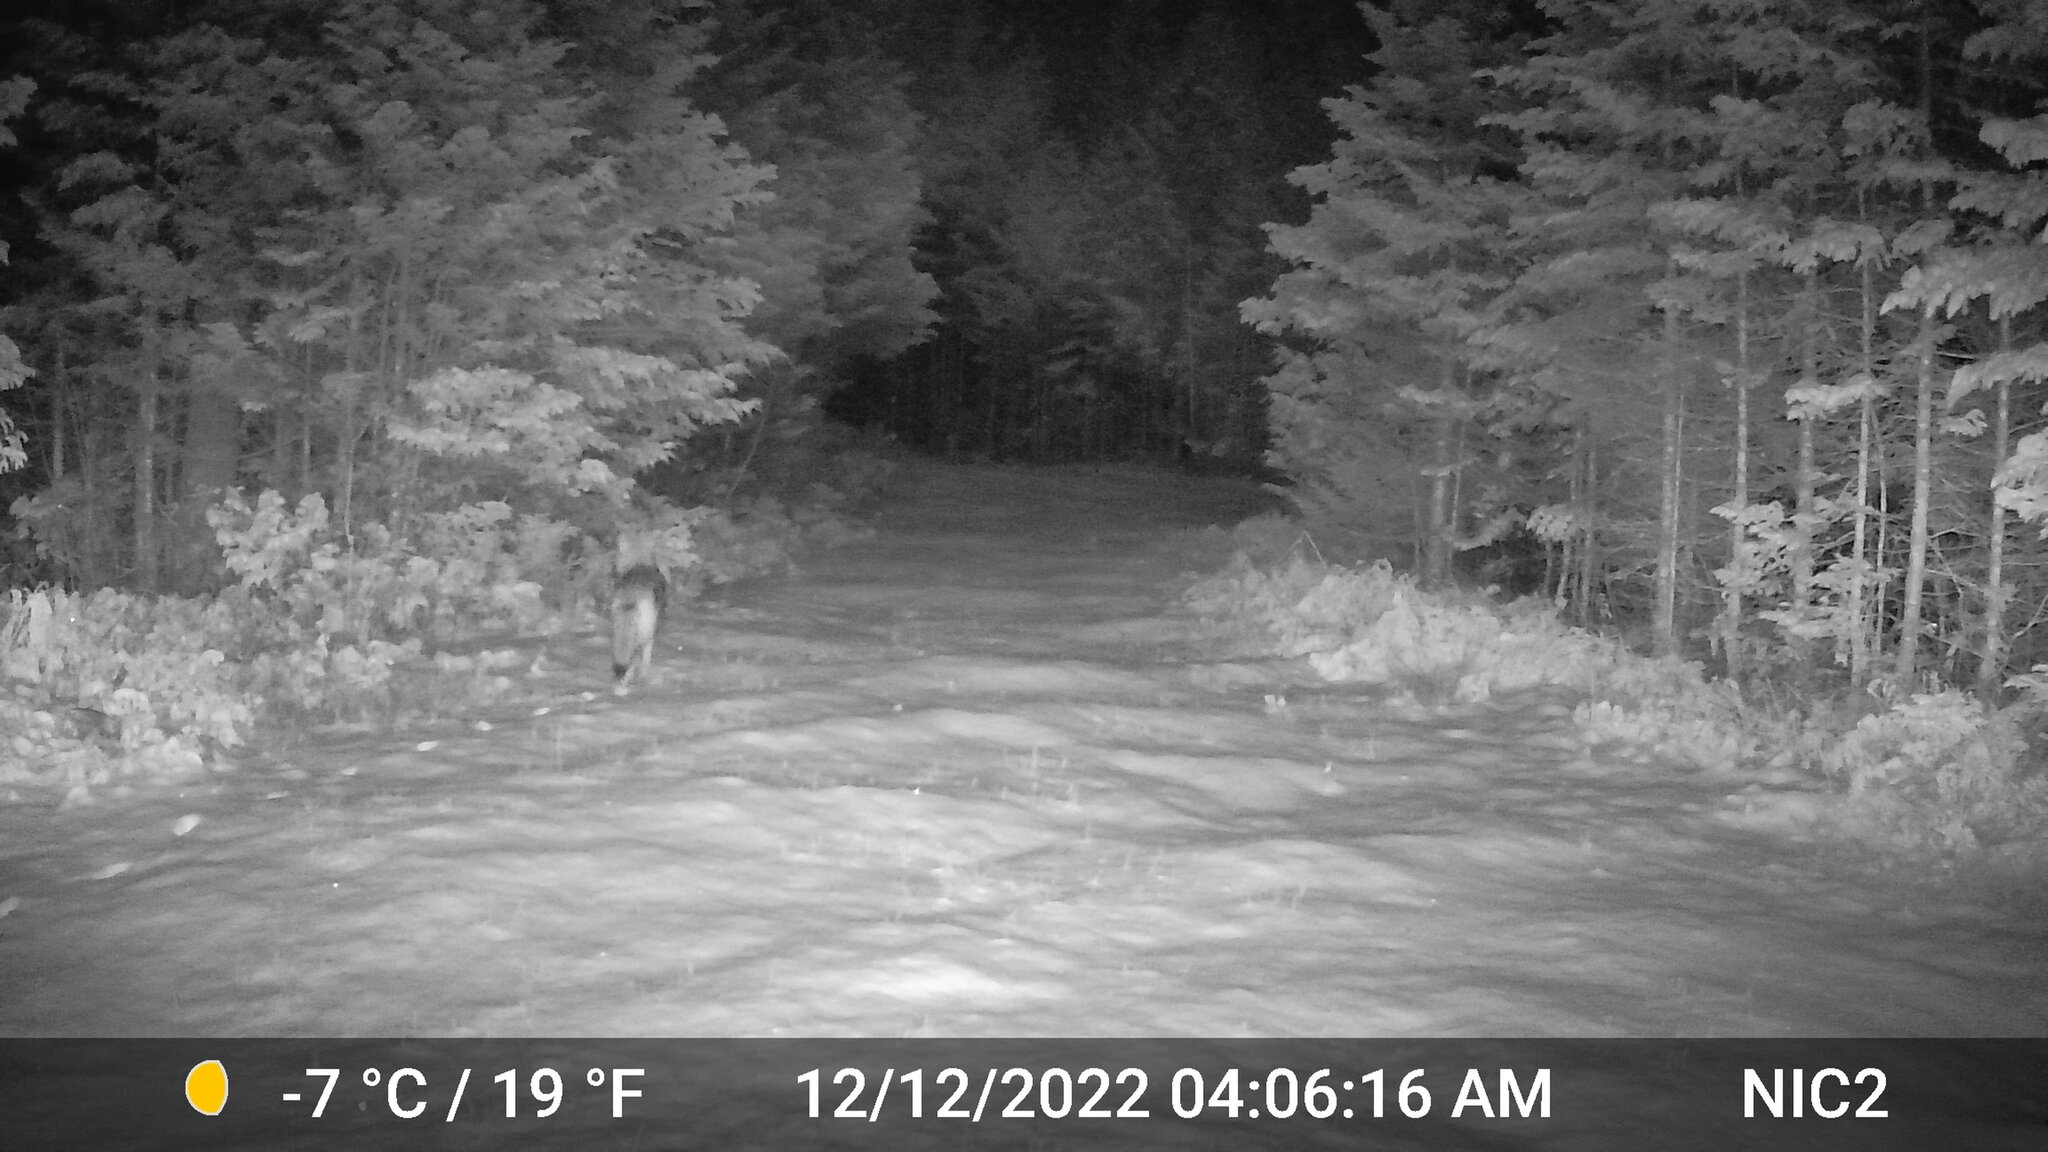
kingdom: Animalia
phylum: Chordata
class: Mammalia
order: Carnivora
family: Canidae
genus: Canis
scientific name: Canis latrans
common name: Coyote
